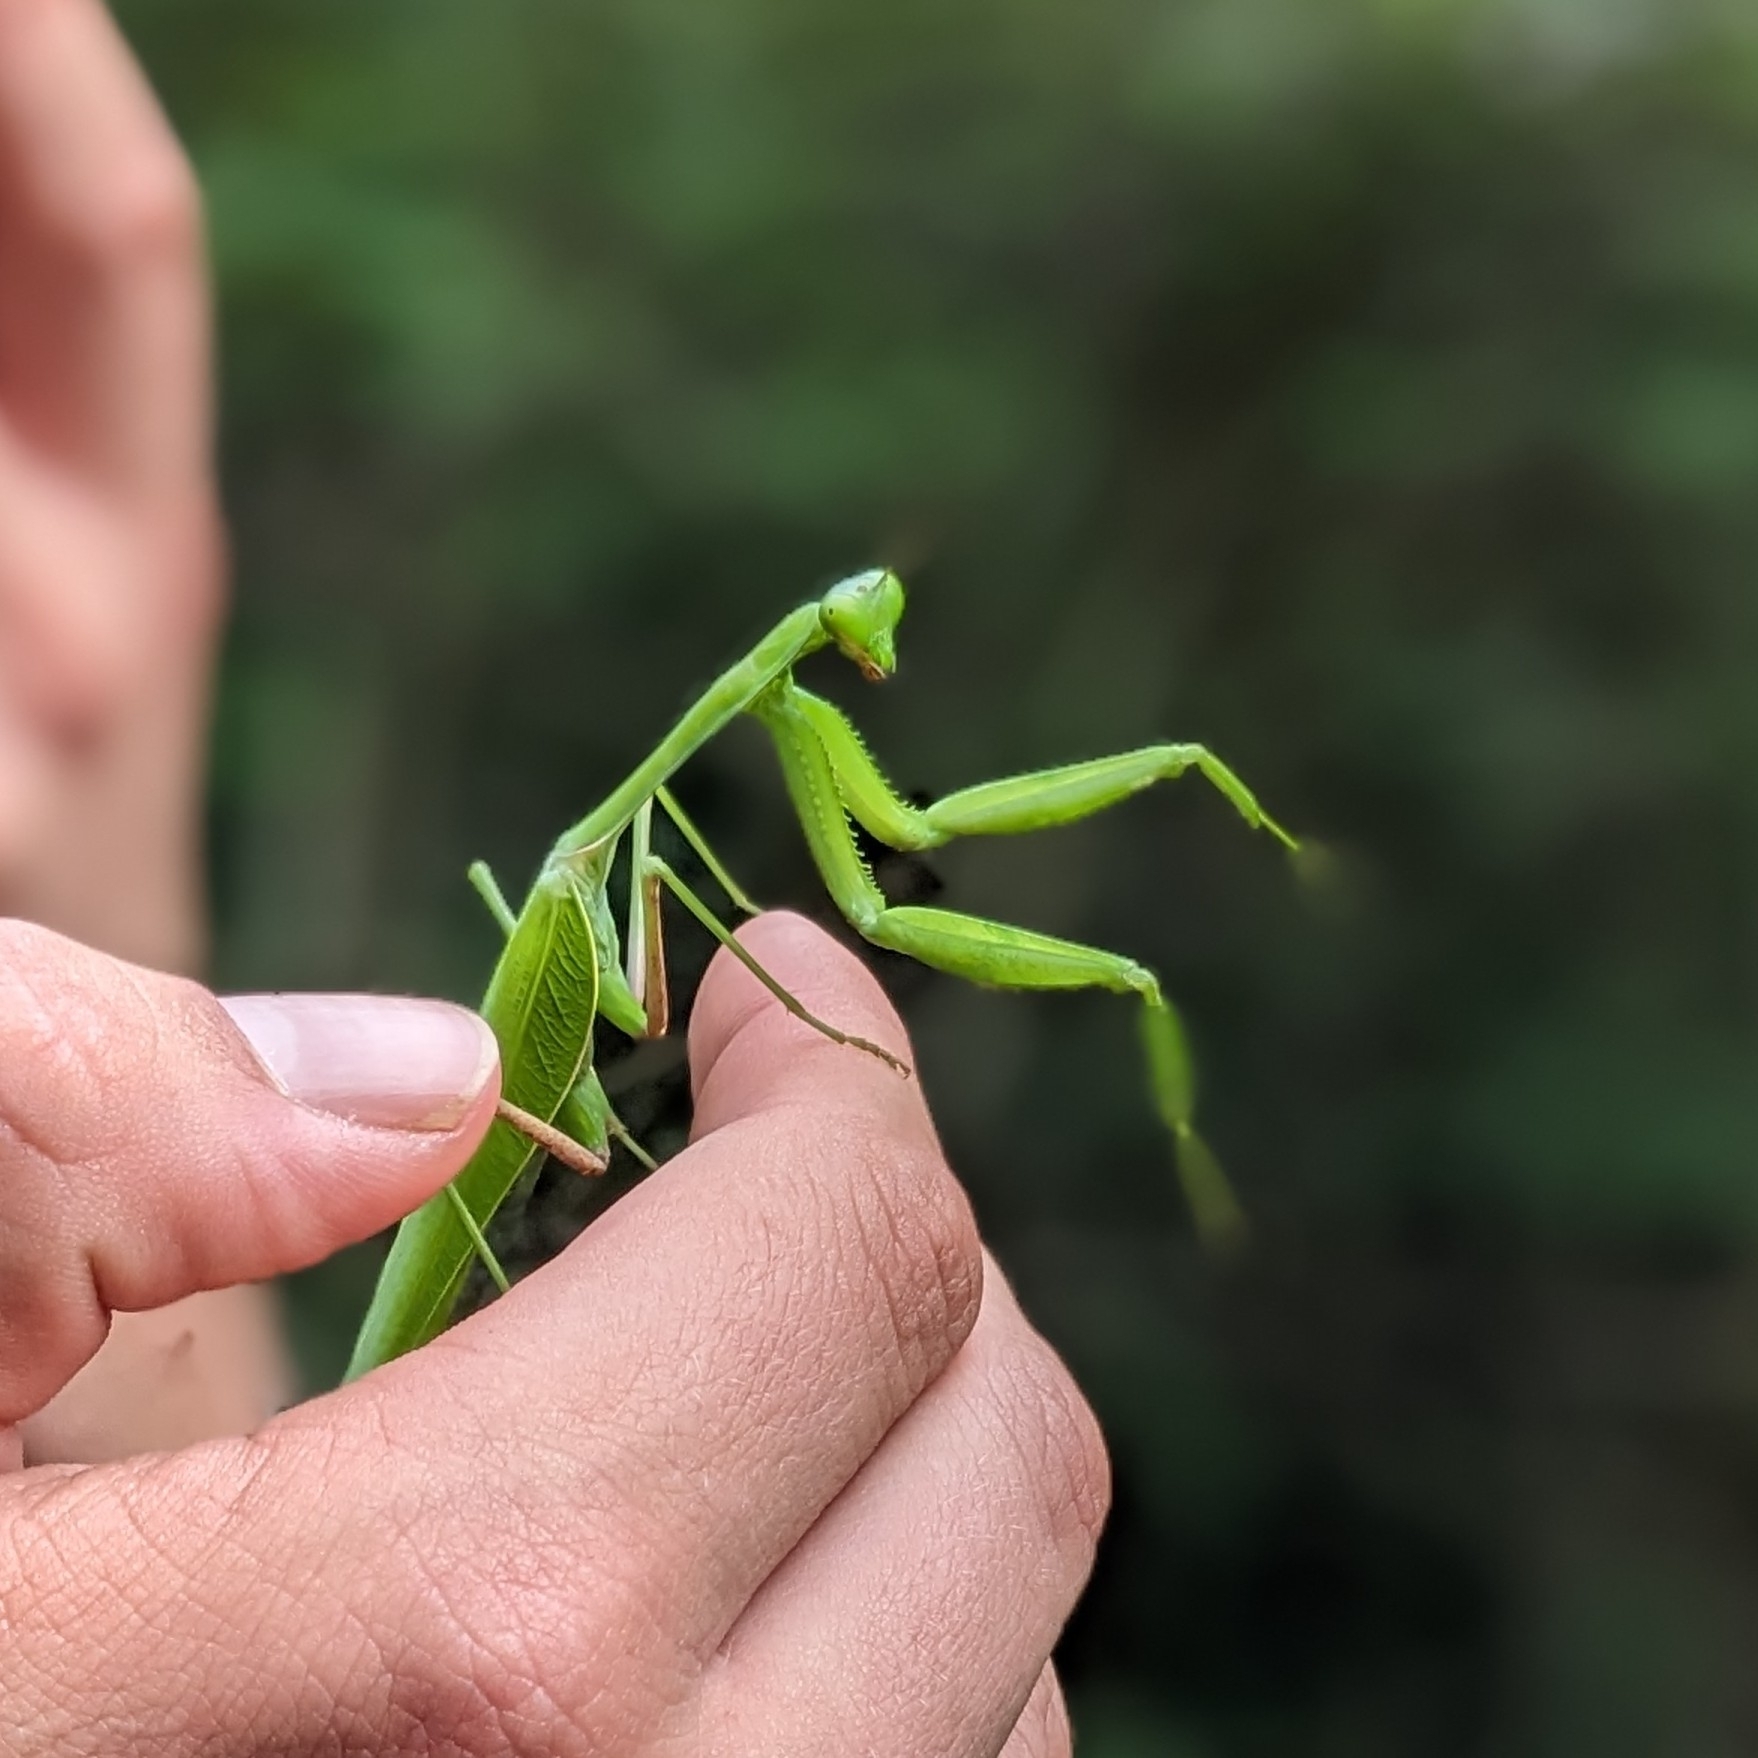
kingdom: Animalia
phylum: Arthropoda
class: Insecta
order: Mantodea
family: Mantidae
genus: Hierodula
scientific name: Hierodula membranacea
